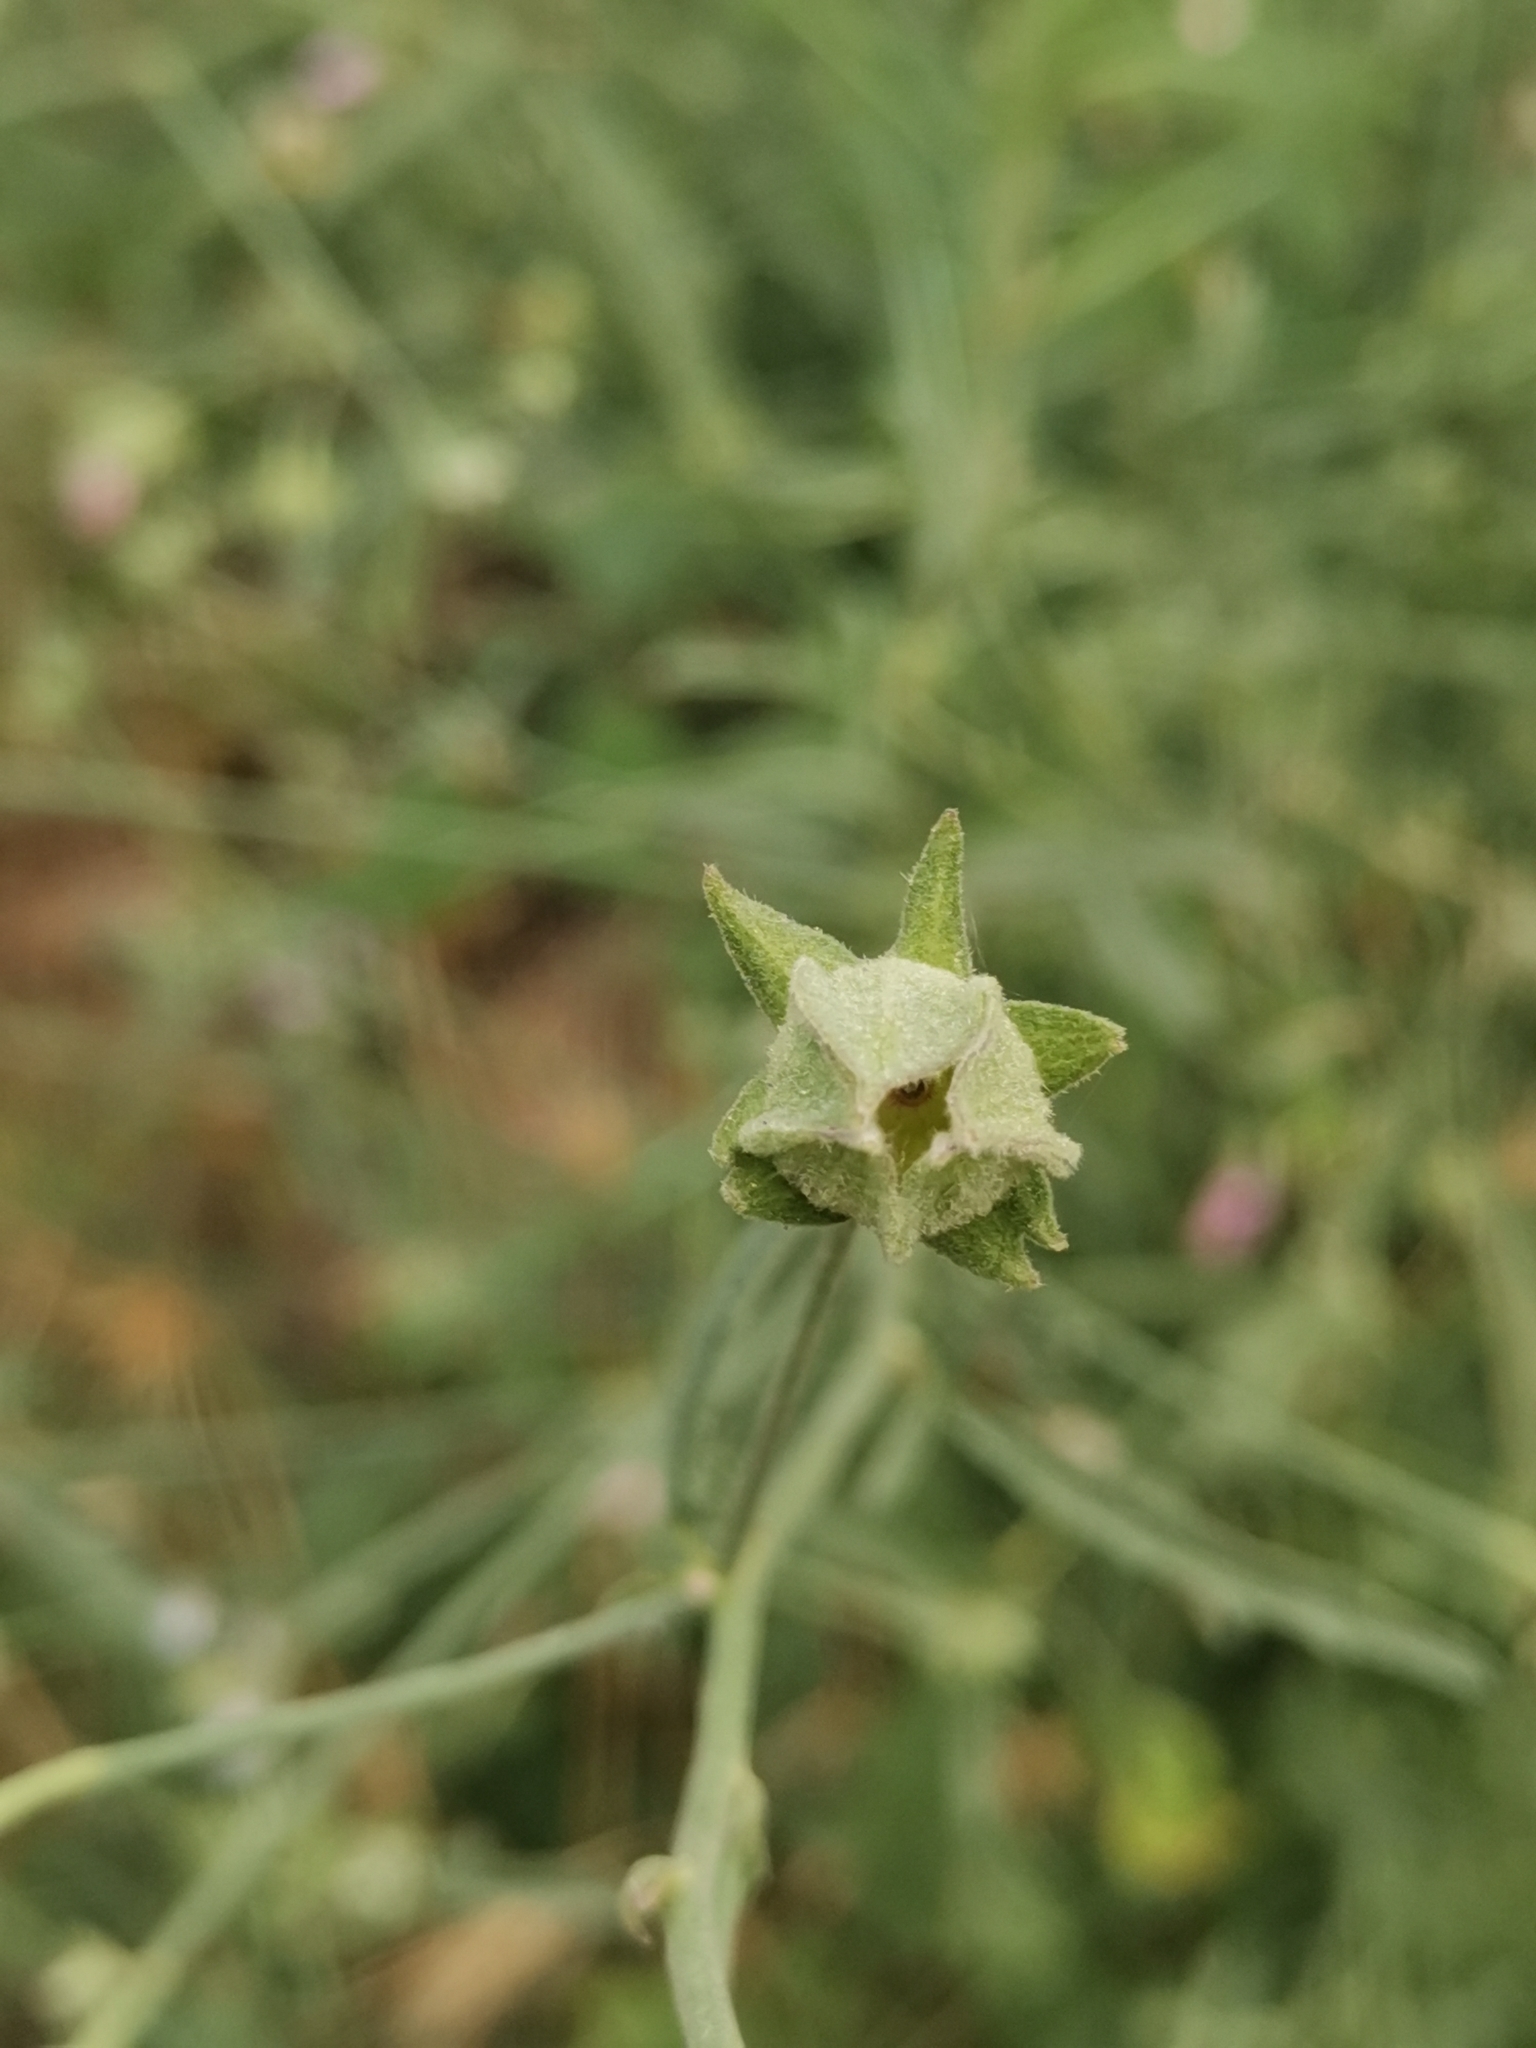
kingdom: Plantae
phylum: Tracheophyta
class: Magnoliopsida
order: Malvales
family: Malvaceae
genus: Althaea
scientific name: Althaea cannabina
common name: Palm-leaf marshmallow
